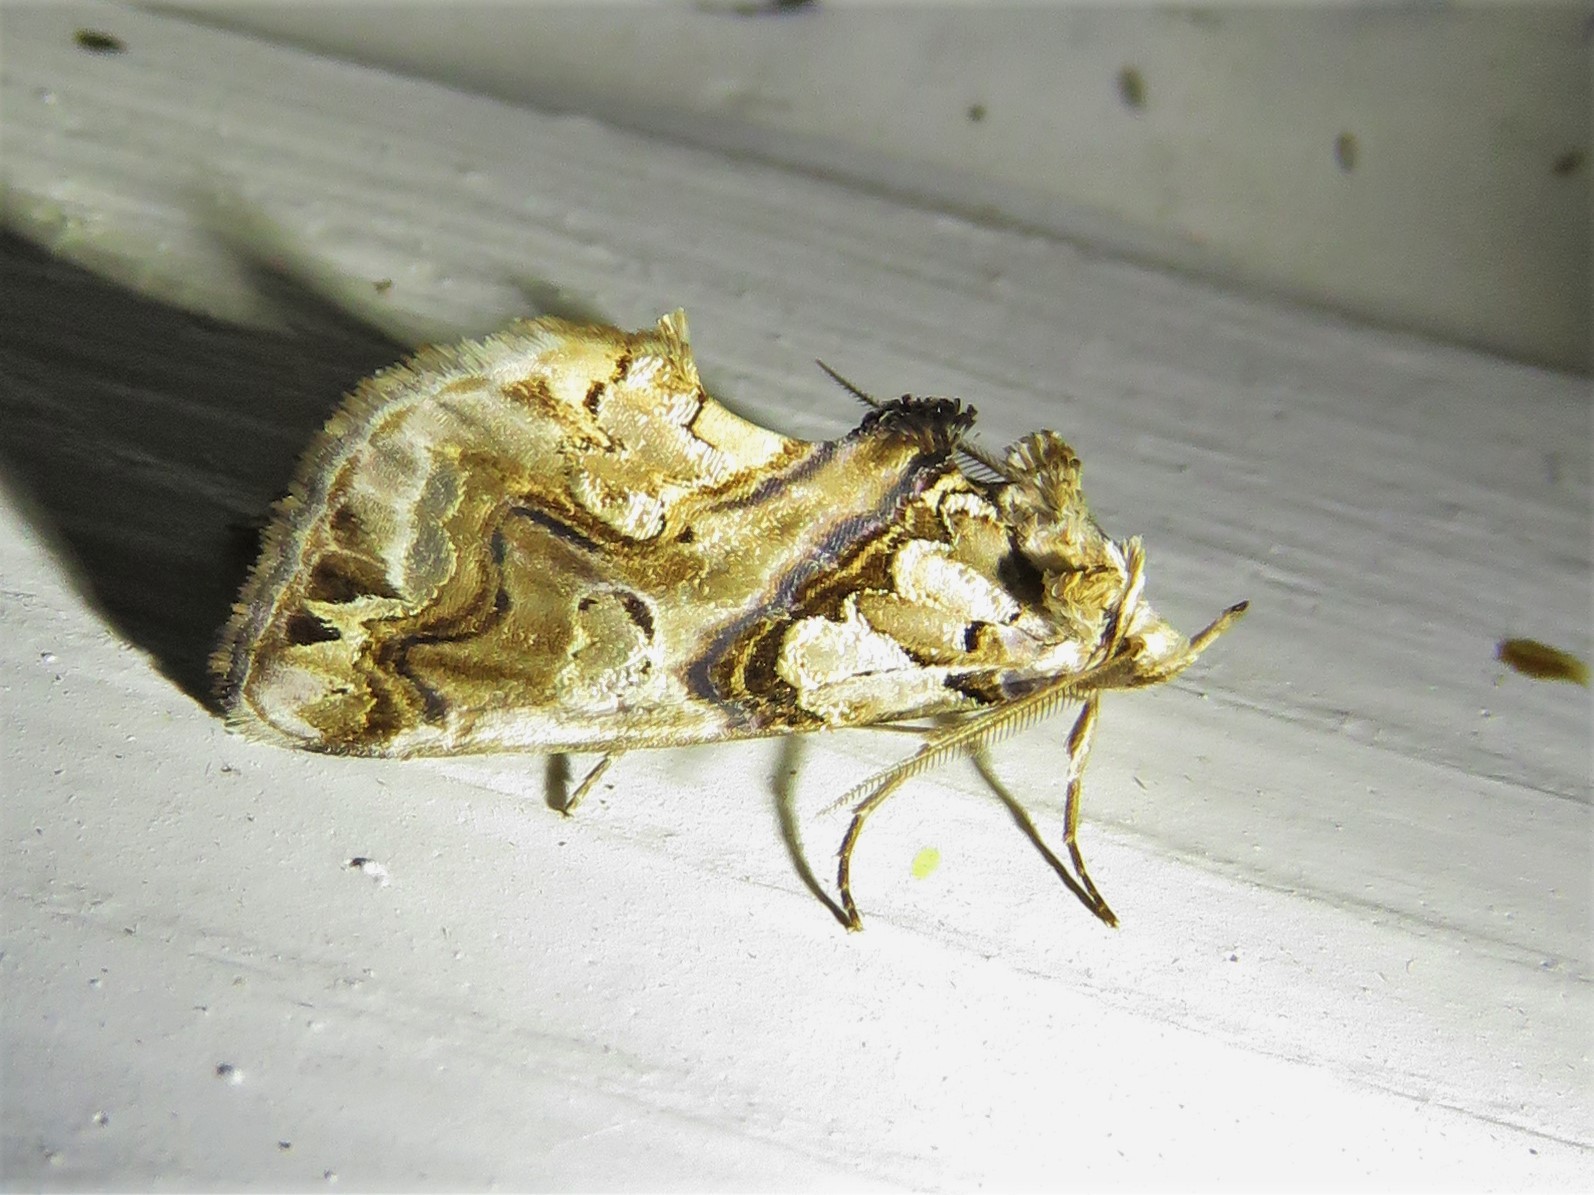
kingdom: Animalia
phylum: Arthropoda
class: Insecta
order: Lepidoptera
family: Erebidae
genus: Plusiodonta
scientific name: Plusiodonta compressipalpis
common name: Moonseed moth
